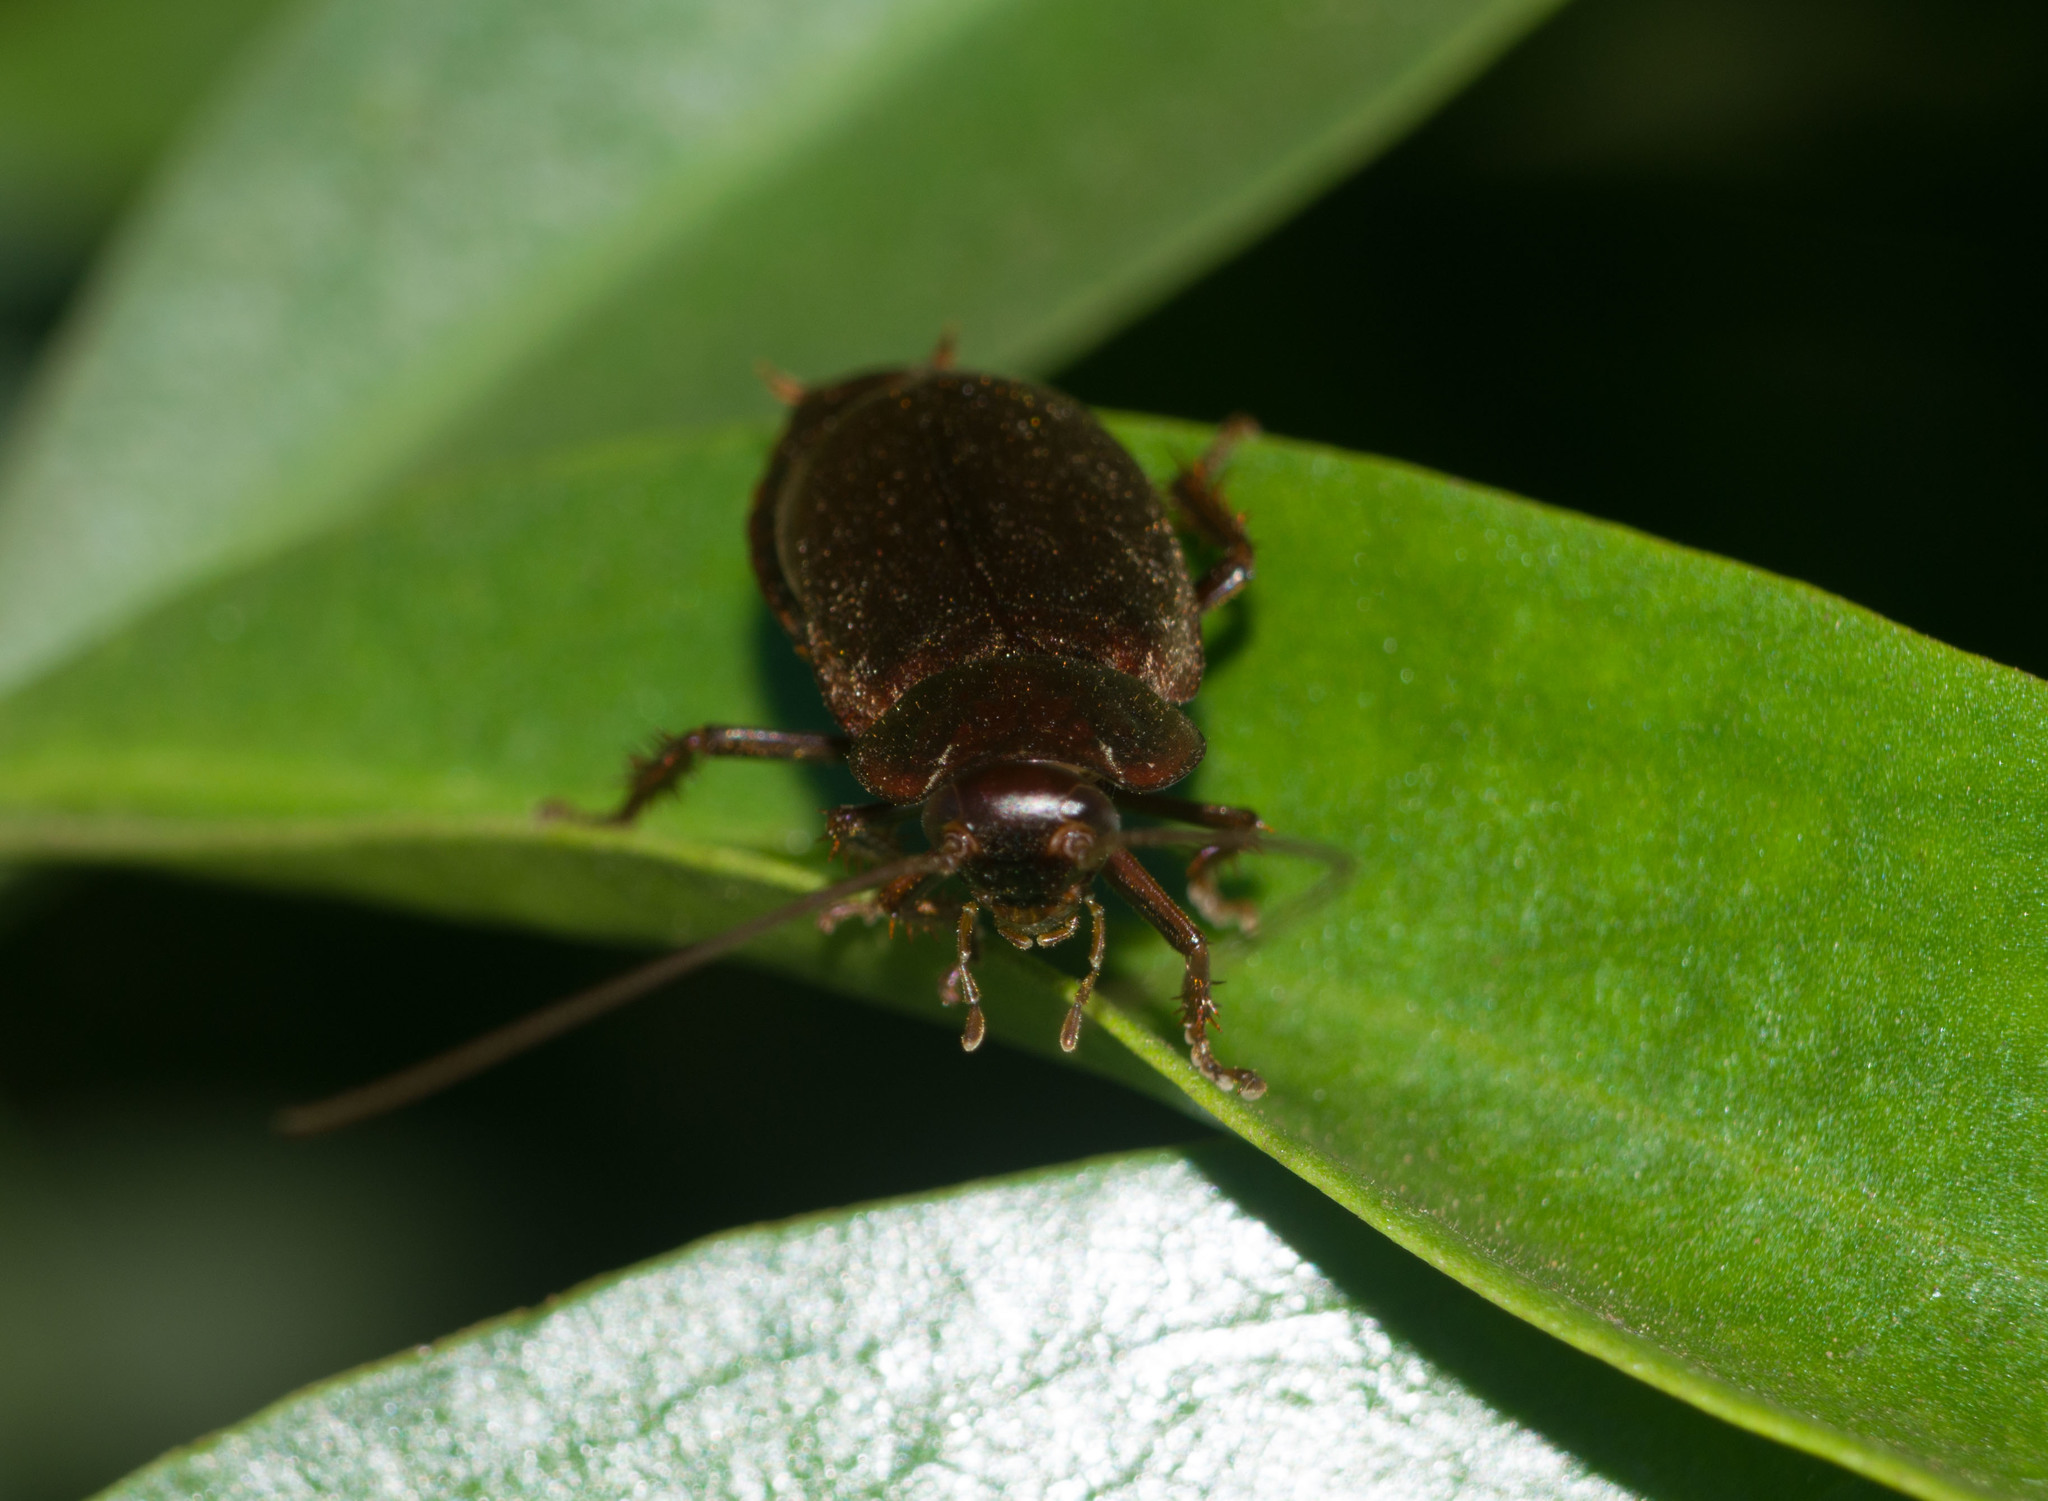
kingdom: Animalia
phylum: Arthropoda
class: Insecta
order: Blattodea
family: Blaberidae
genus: Diploptera
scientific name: Diploptera punctata
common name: Pacific beetle cockroach
